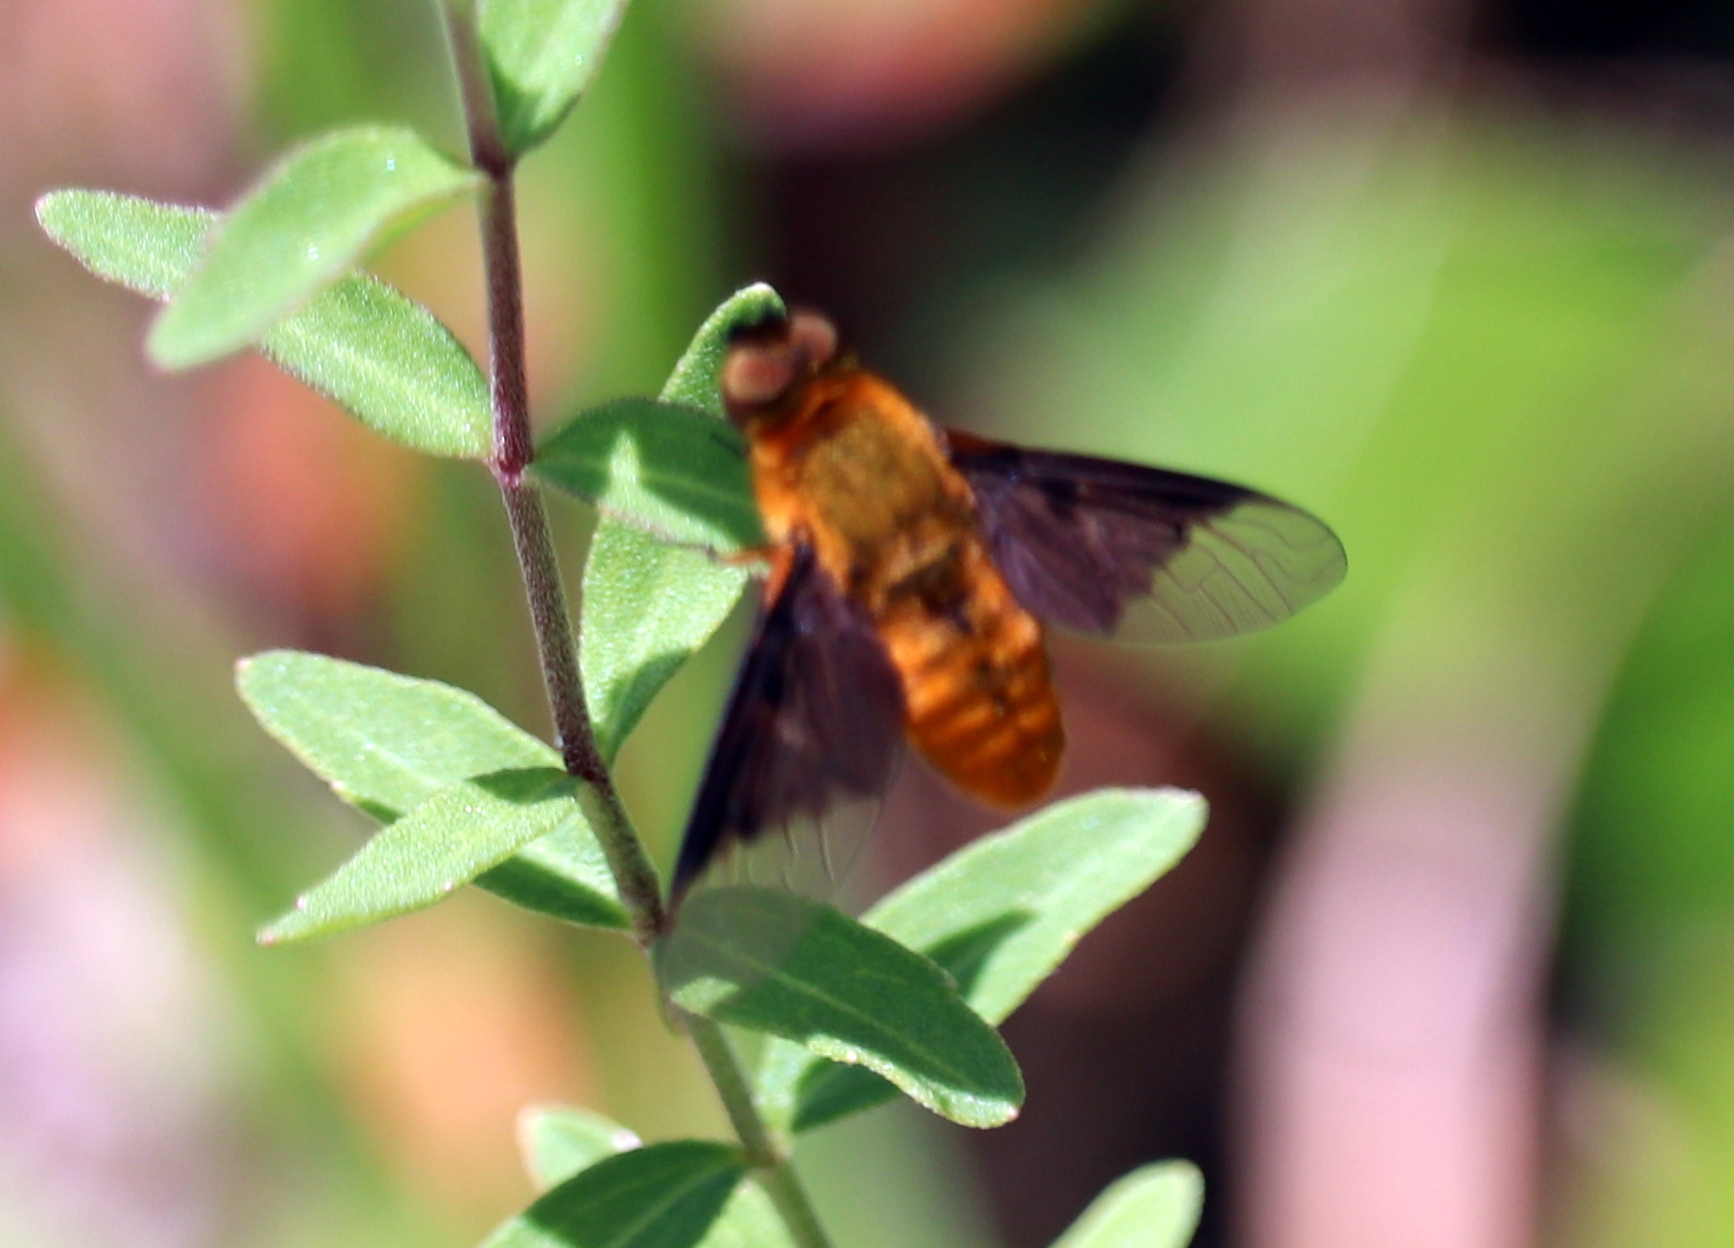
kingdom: Animalia
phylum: Arthropoda
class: Insecta
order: Diptera
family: Bombyliidae
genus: Chrysanthrax
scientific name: Chrysanthrax cypris
